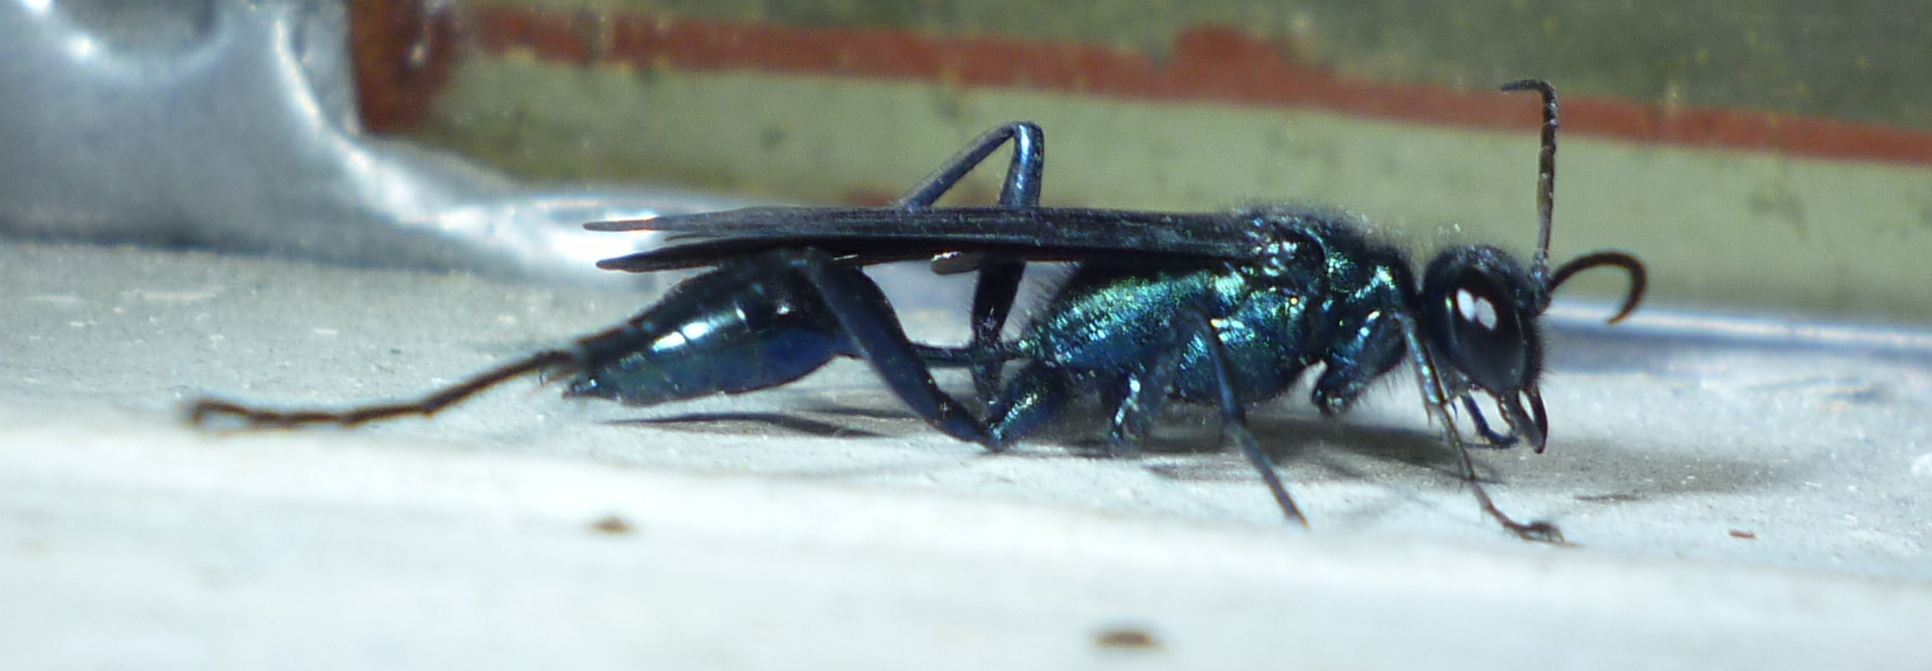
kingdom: Animalia
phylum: Arthropoda
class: Insecta
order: Hymenoptera
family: Sphecidae
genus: Chalybion
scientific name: Chalybion californicum
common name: Mud dauber
